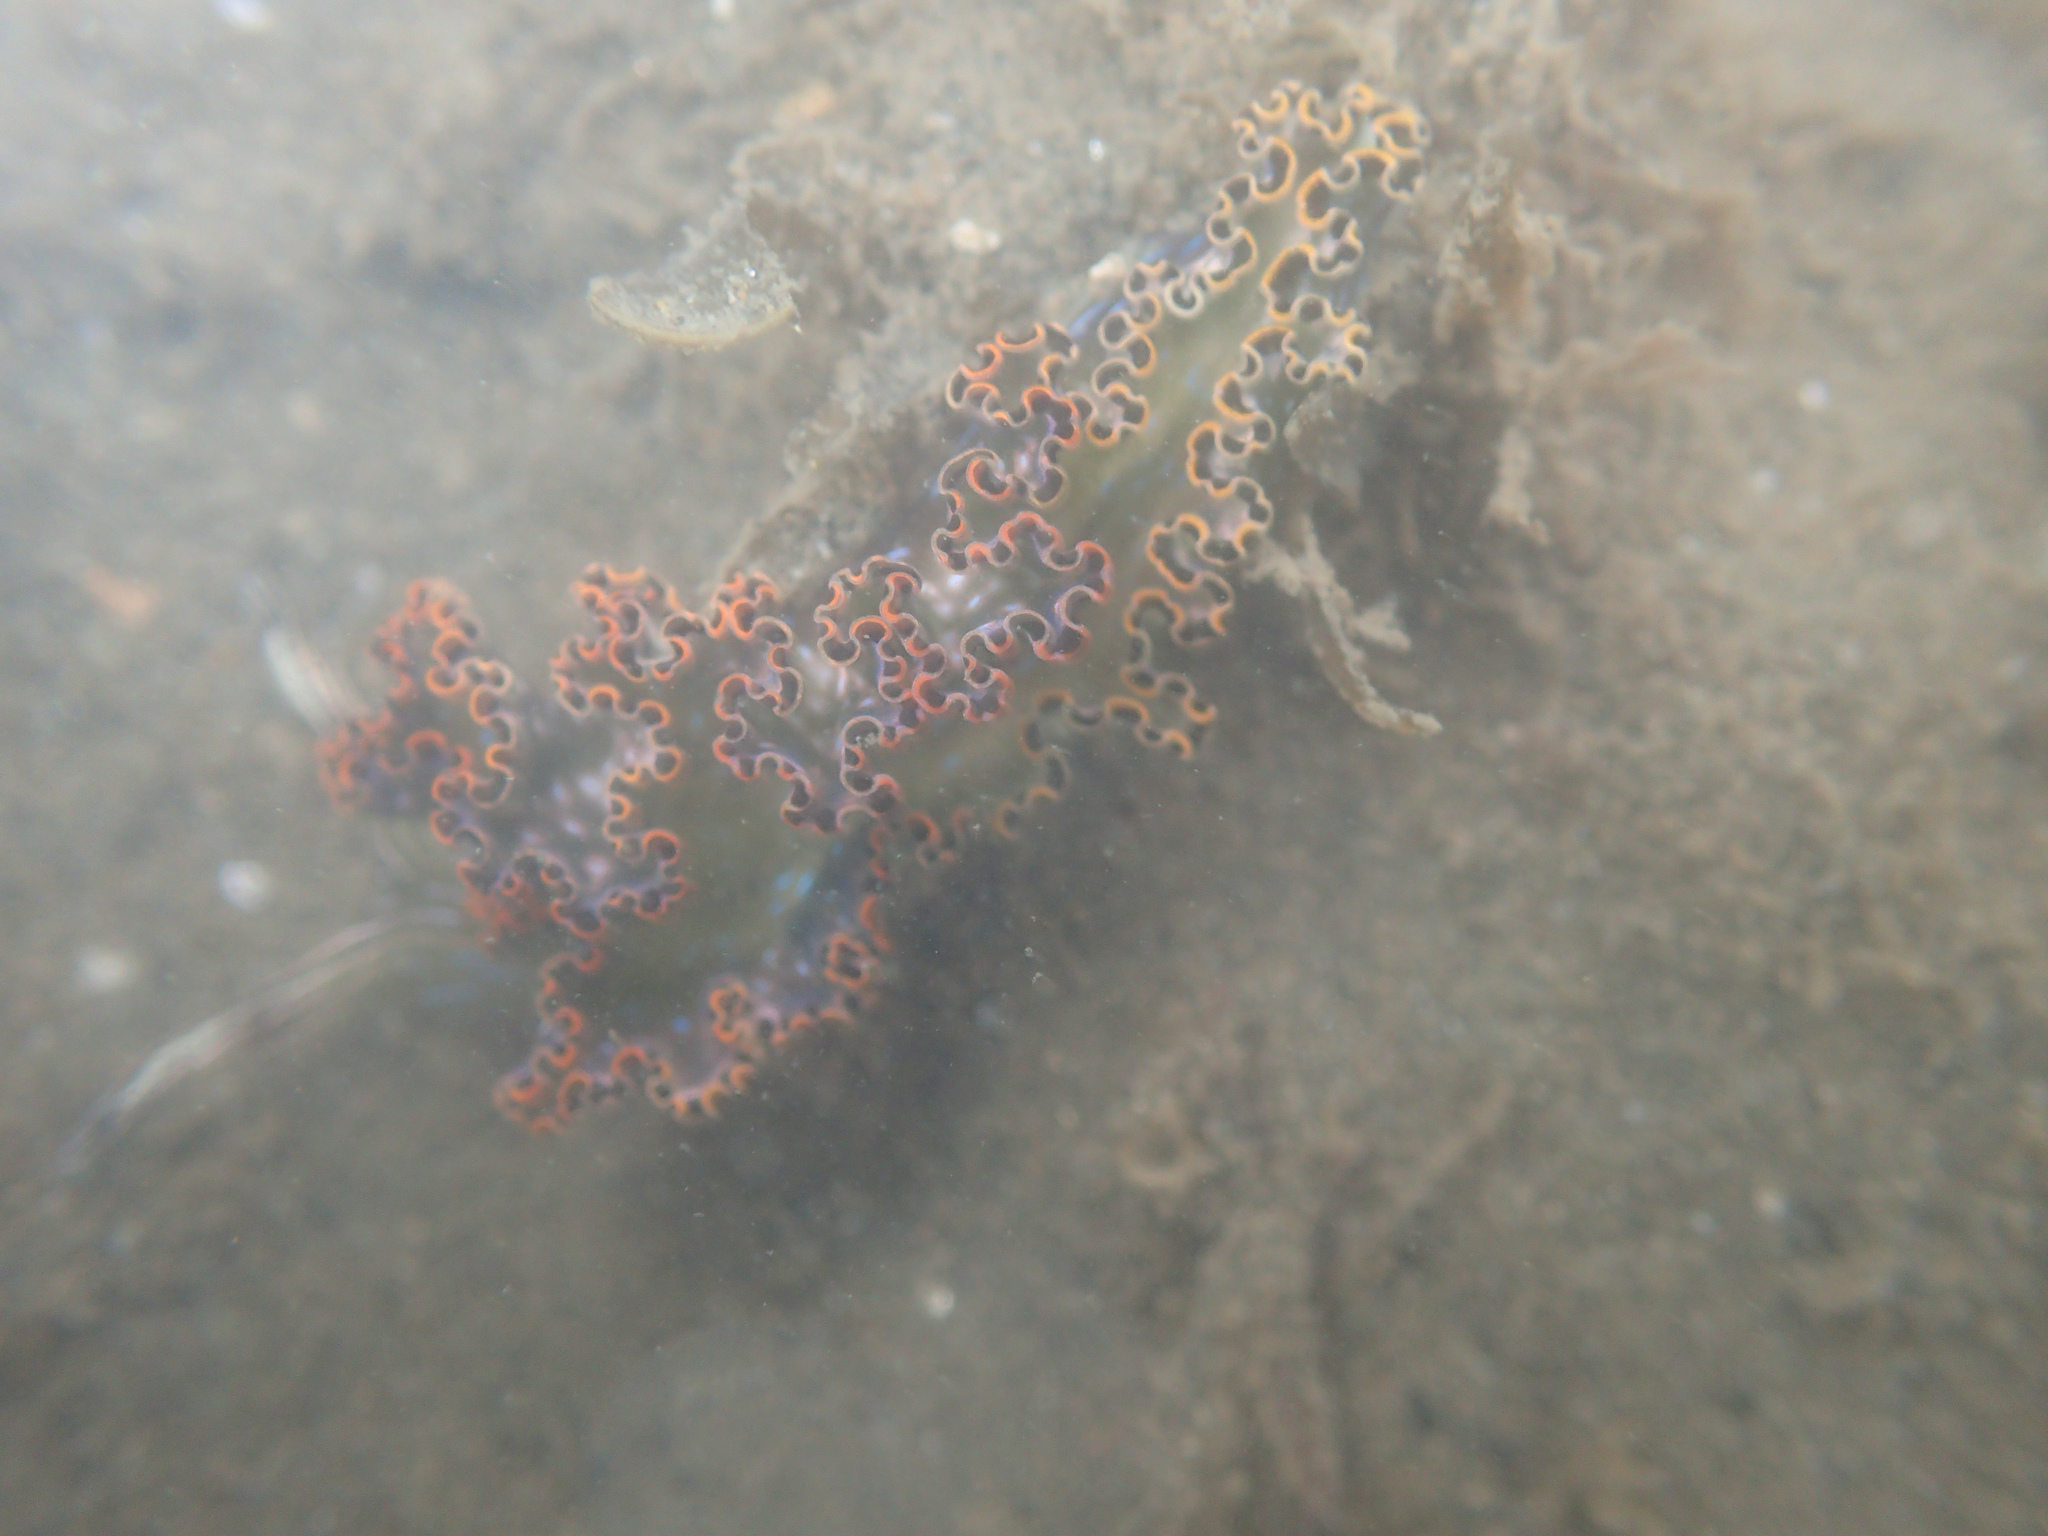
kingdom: Animalia
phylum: Mollusca
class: Gastropoda
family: Plakobranchidae
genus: Elysia
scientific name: Elysia diomedea
